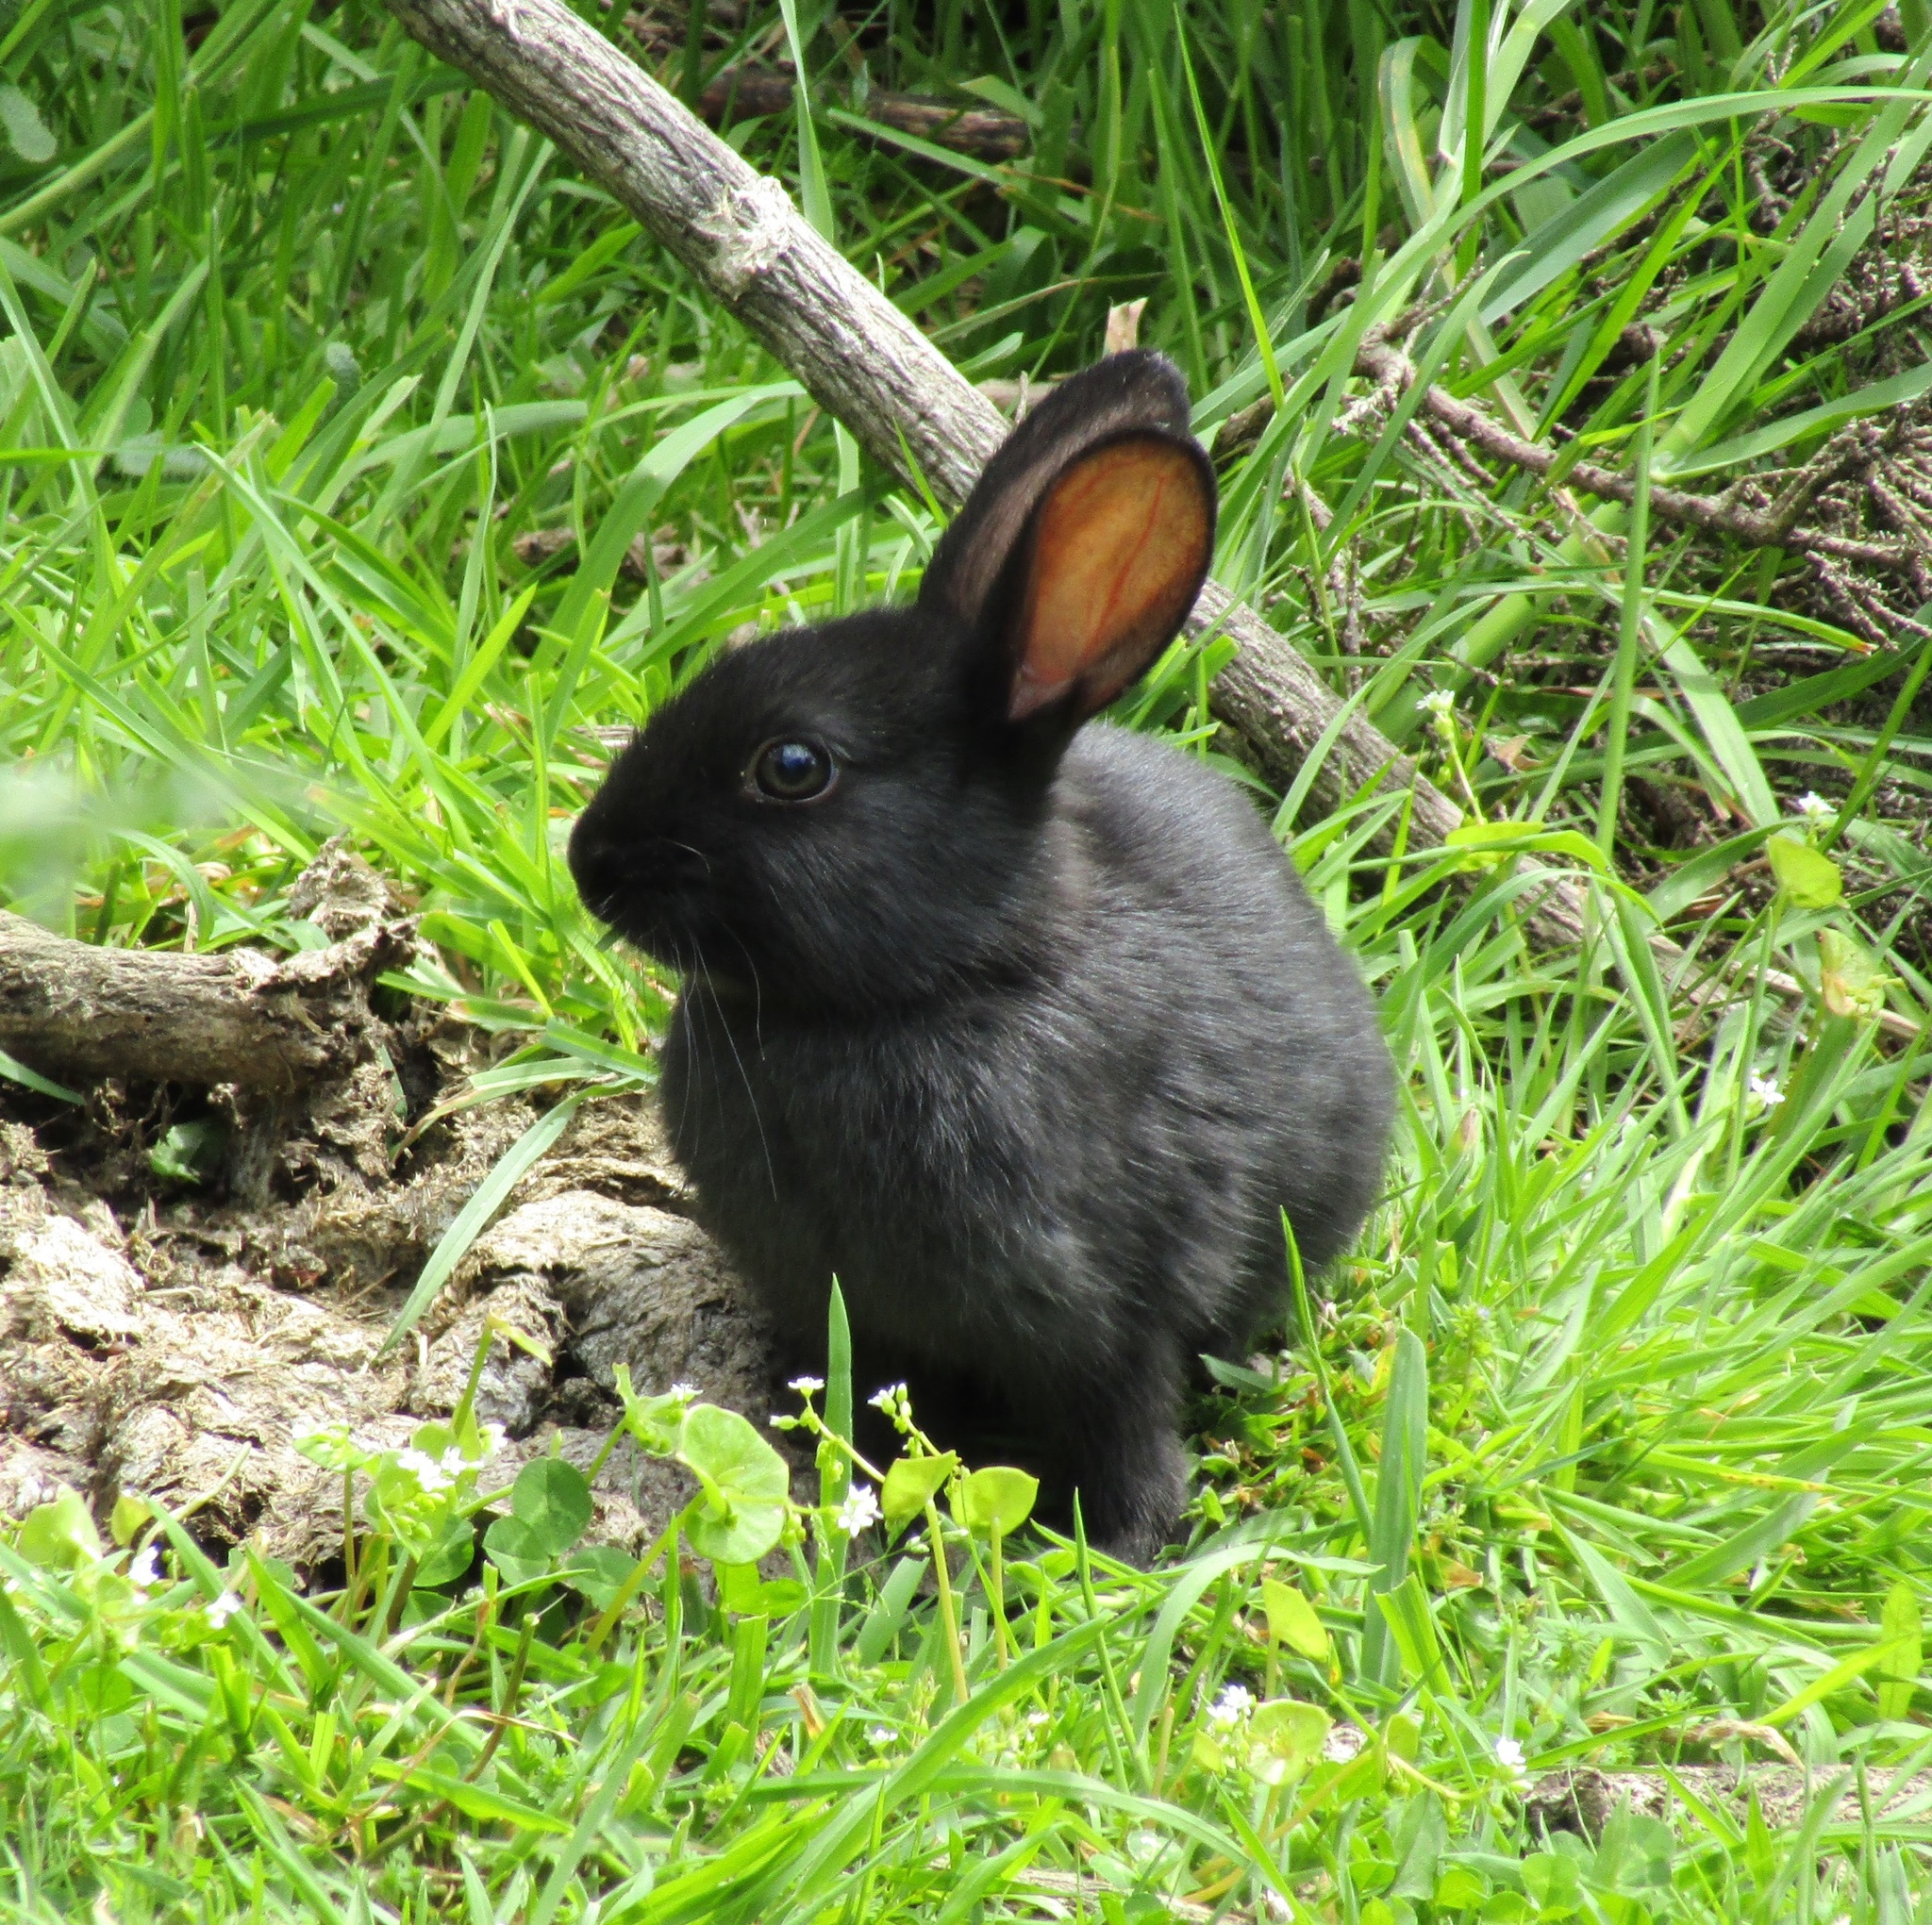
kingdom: Animalia
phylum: Chordata
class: Mammalia
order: Lagomorpha
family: Leporidae
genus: Oryctolagus
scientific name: Oryctolagus cuniculus
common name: European rabbit
